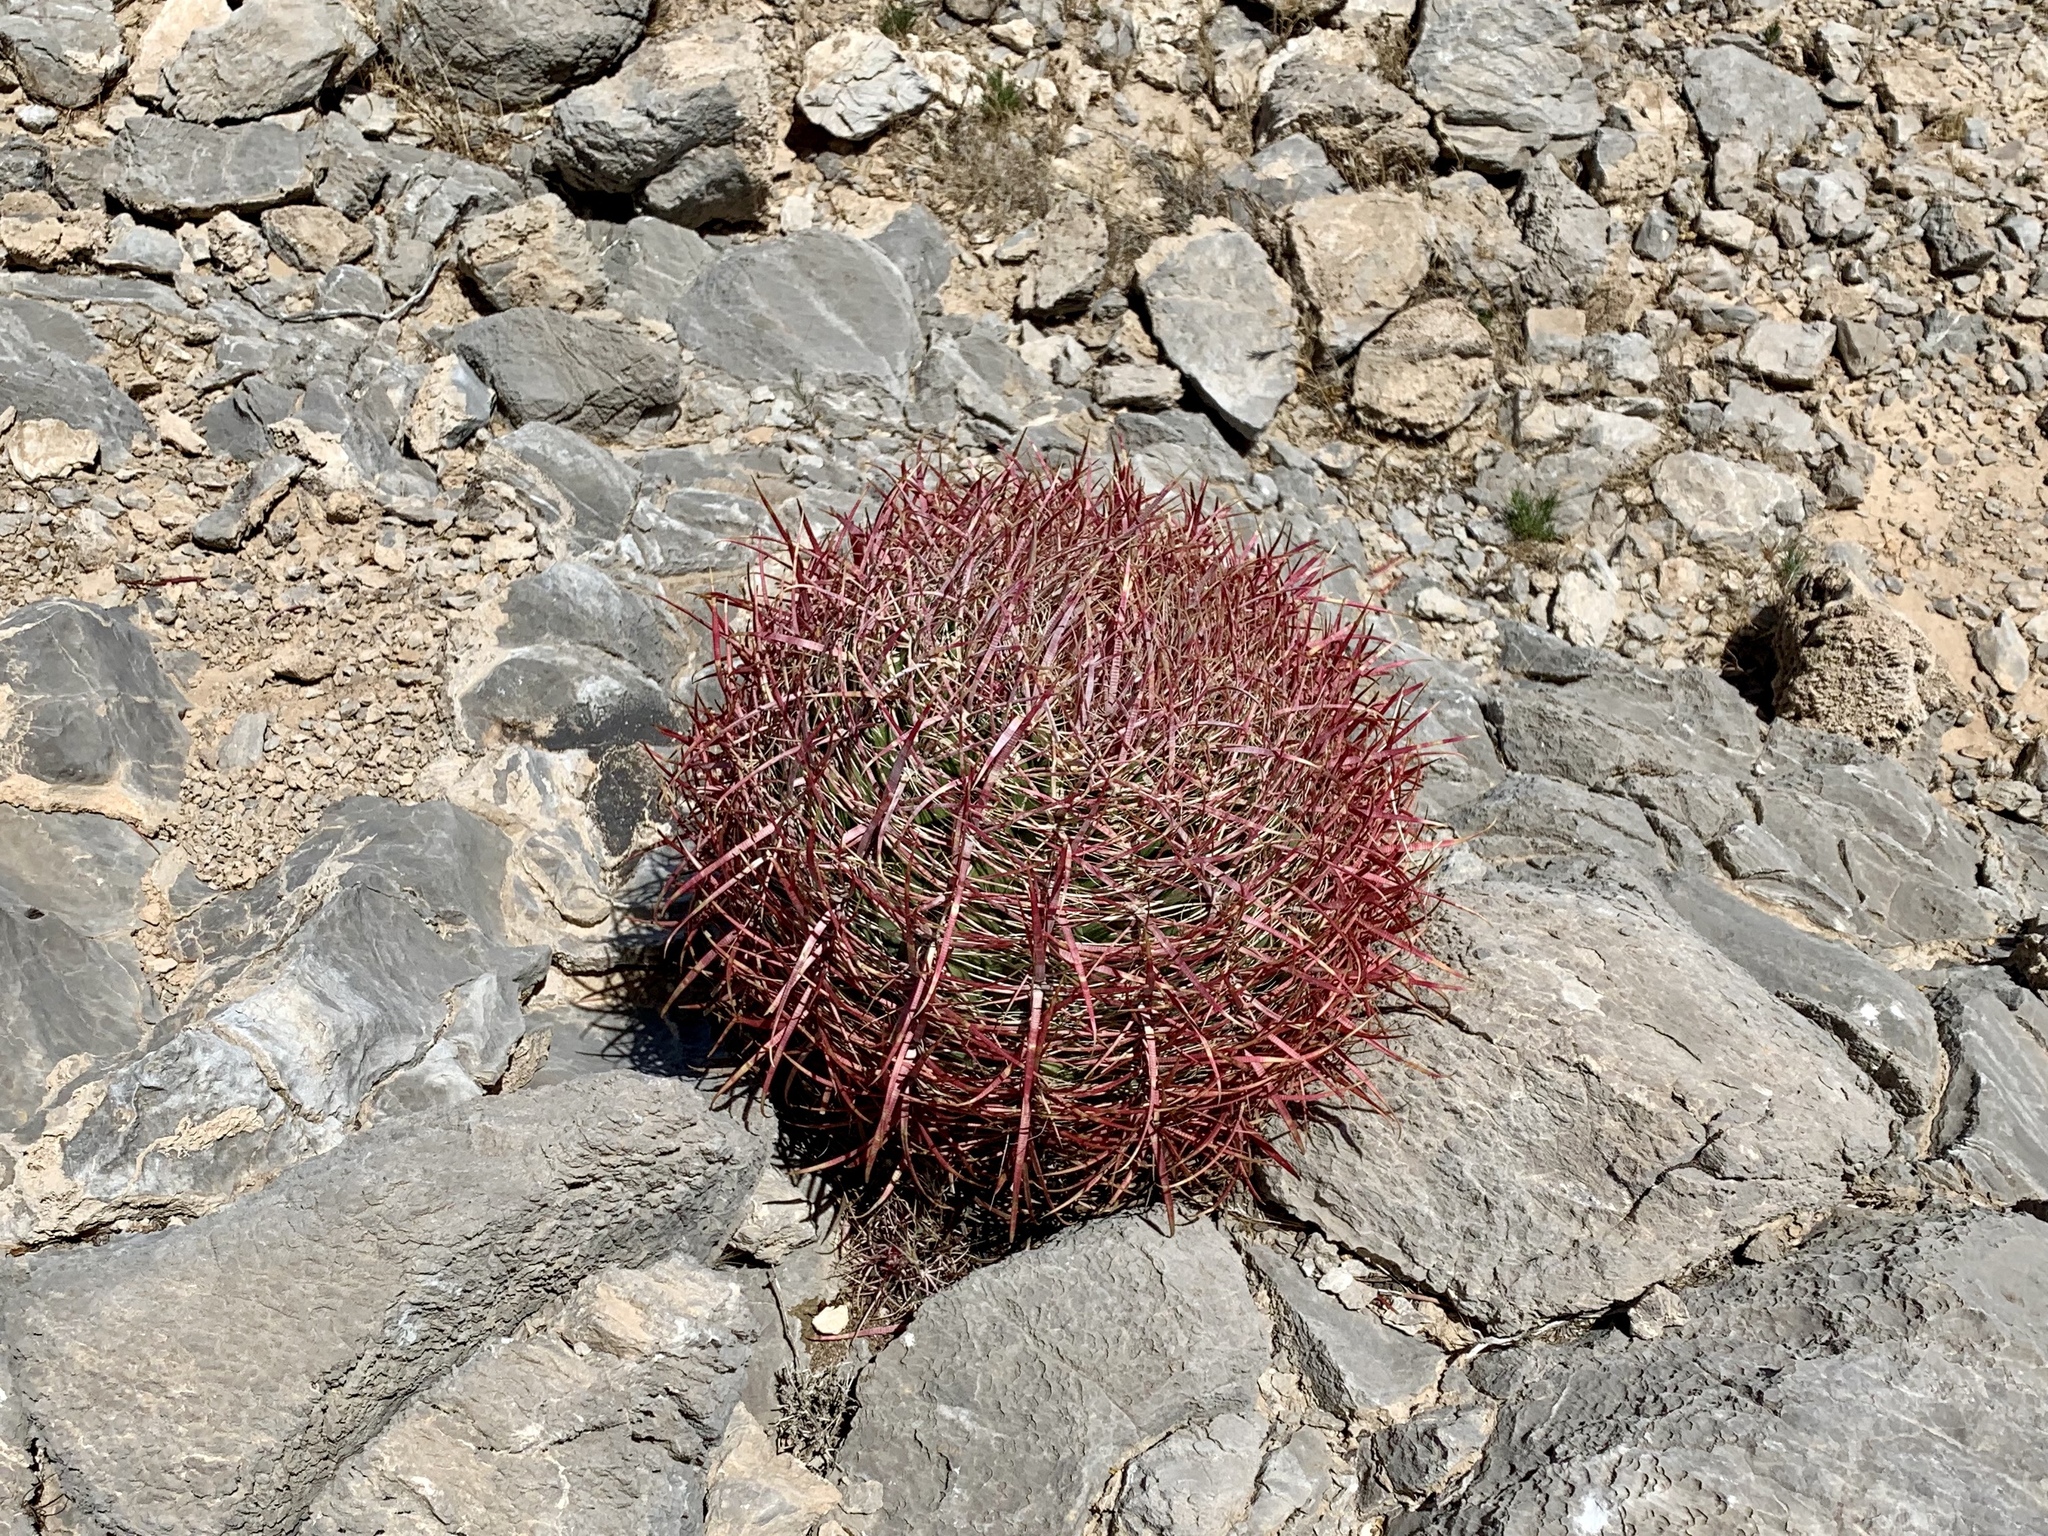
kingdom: Plantae
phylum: Tracheophyta
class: Magnoliopsida
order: Caryophyllales
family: Cactaceae
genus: Ferocactus
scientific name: Ferocactus cylindraceus
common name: California barrel cactus
